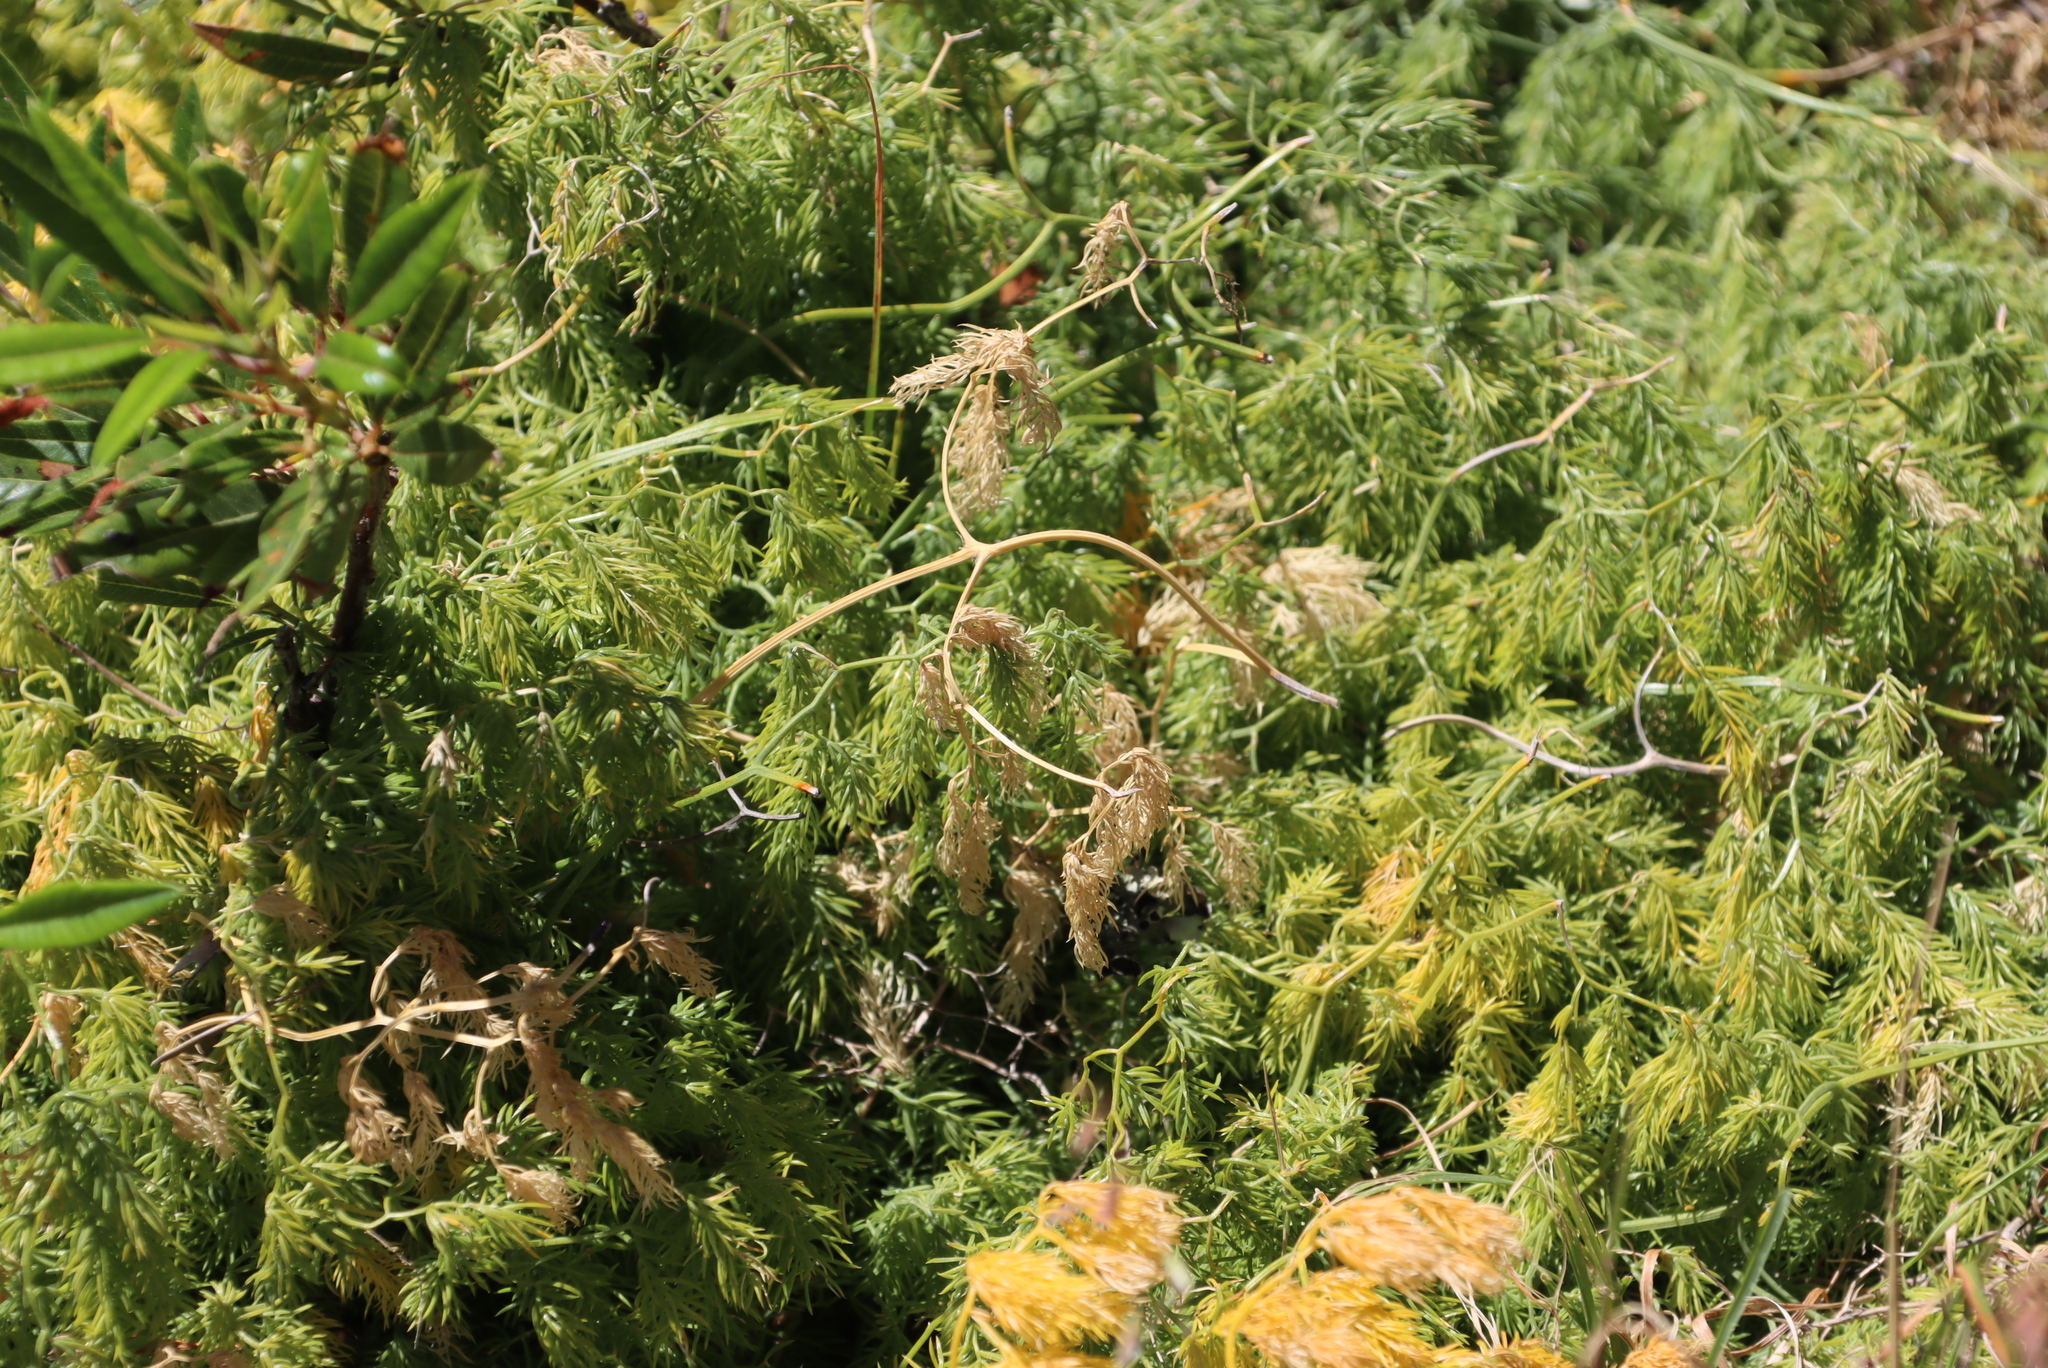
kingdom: Plantae
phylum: Tracheophyta
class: Liliopsida
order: Asparagales
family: Asparagaceae
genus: Asparagus
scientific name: Asparagus declinatus
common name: Bridal-creeper
